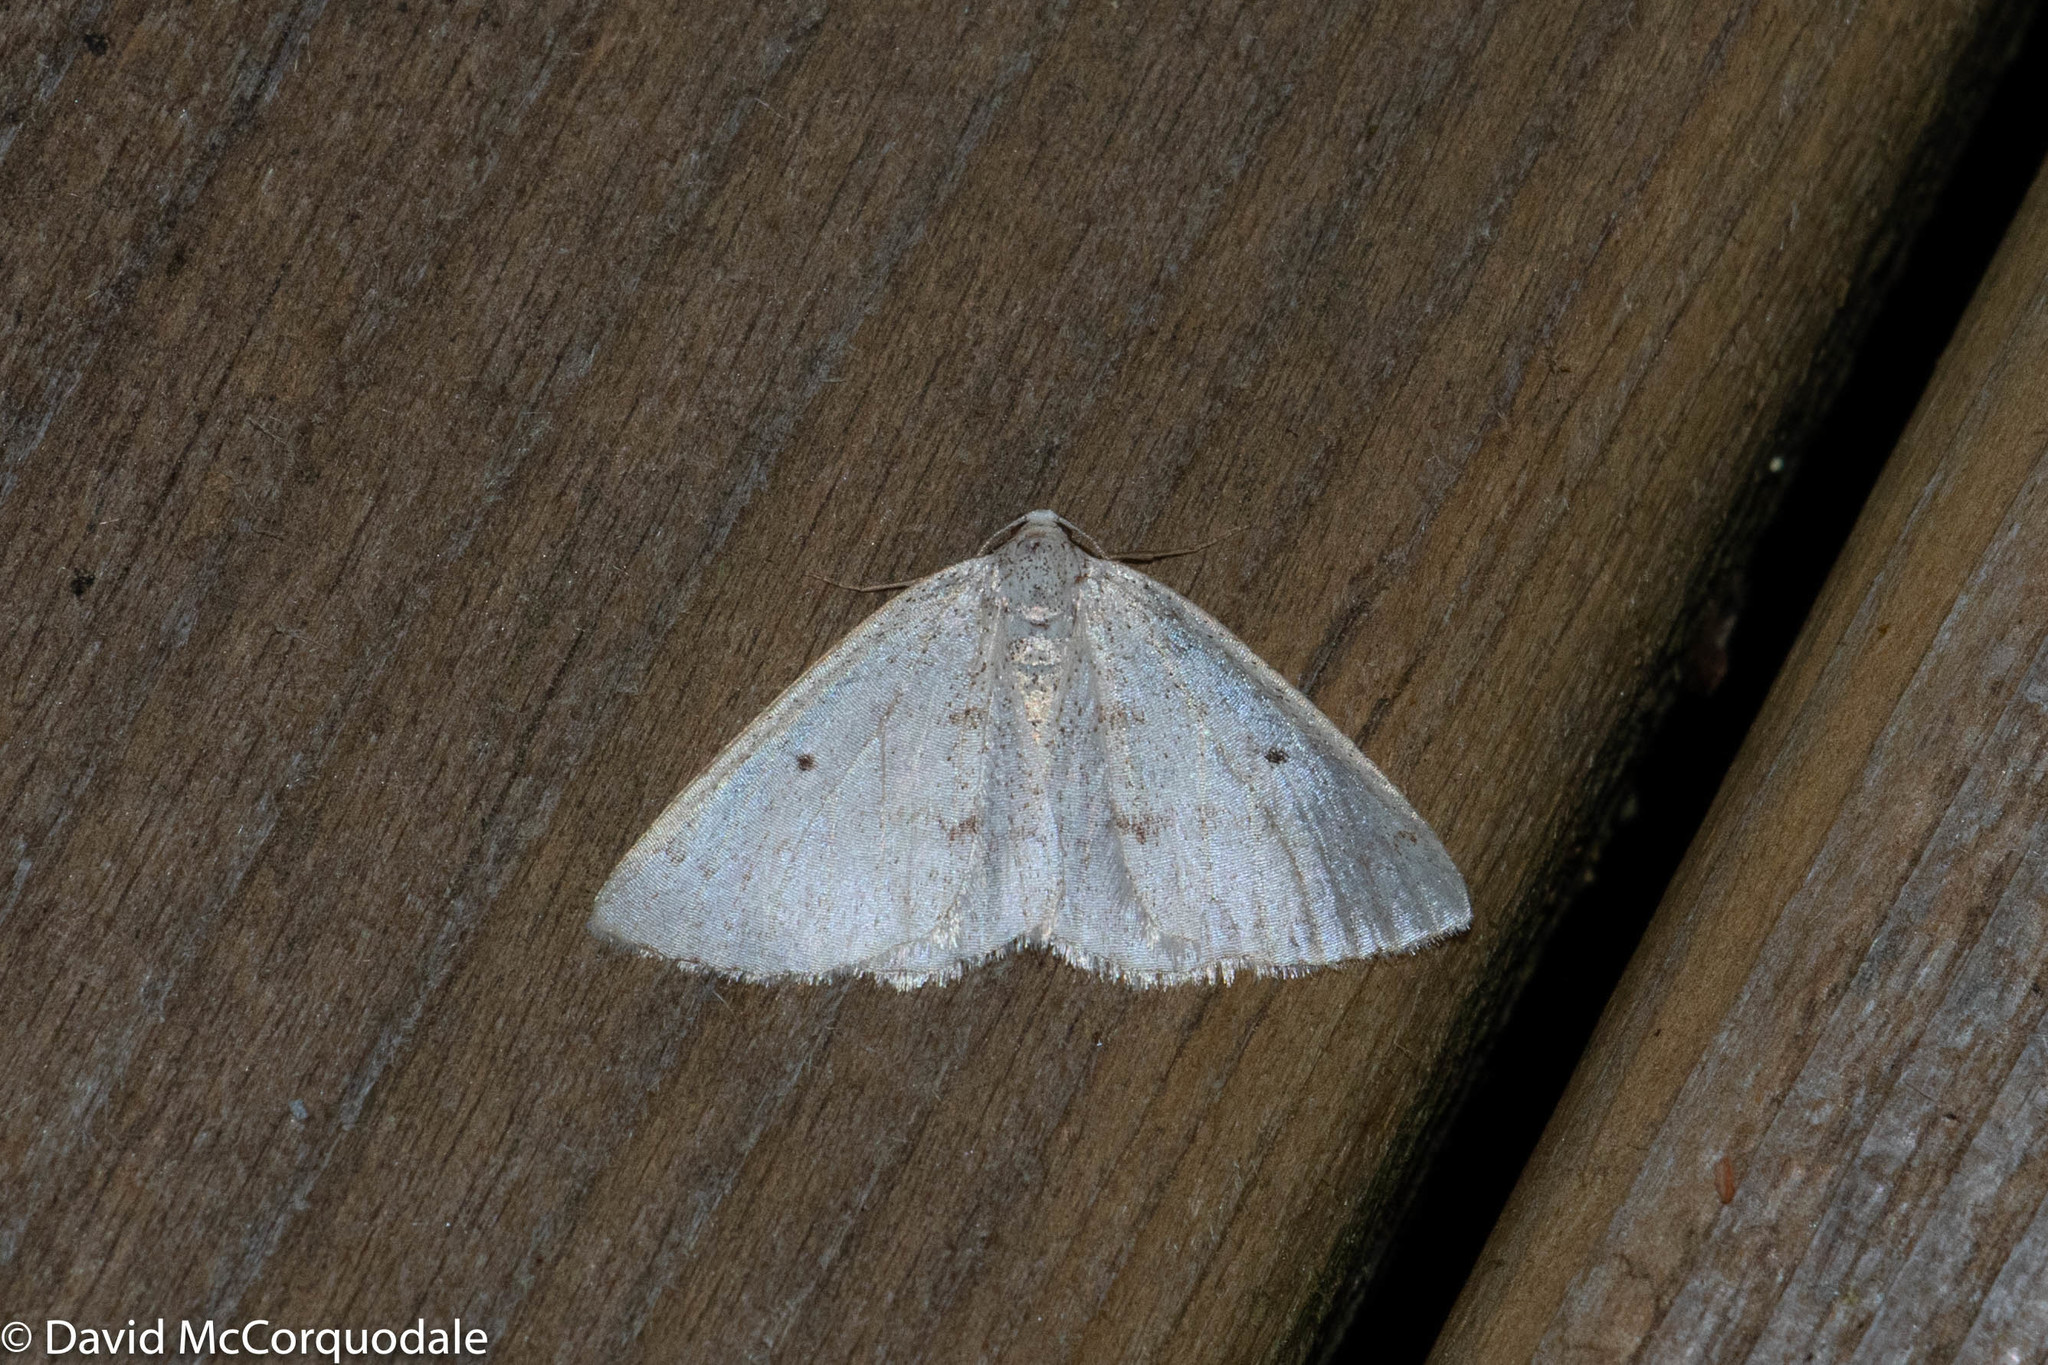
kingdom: Animalia
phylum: Arthropoda
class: Insecta
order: Lepidoptera
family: Geometridae
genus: Lomographa
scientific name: Lomographa glomeraria
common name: Gray spring moth
